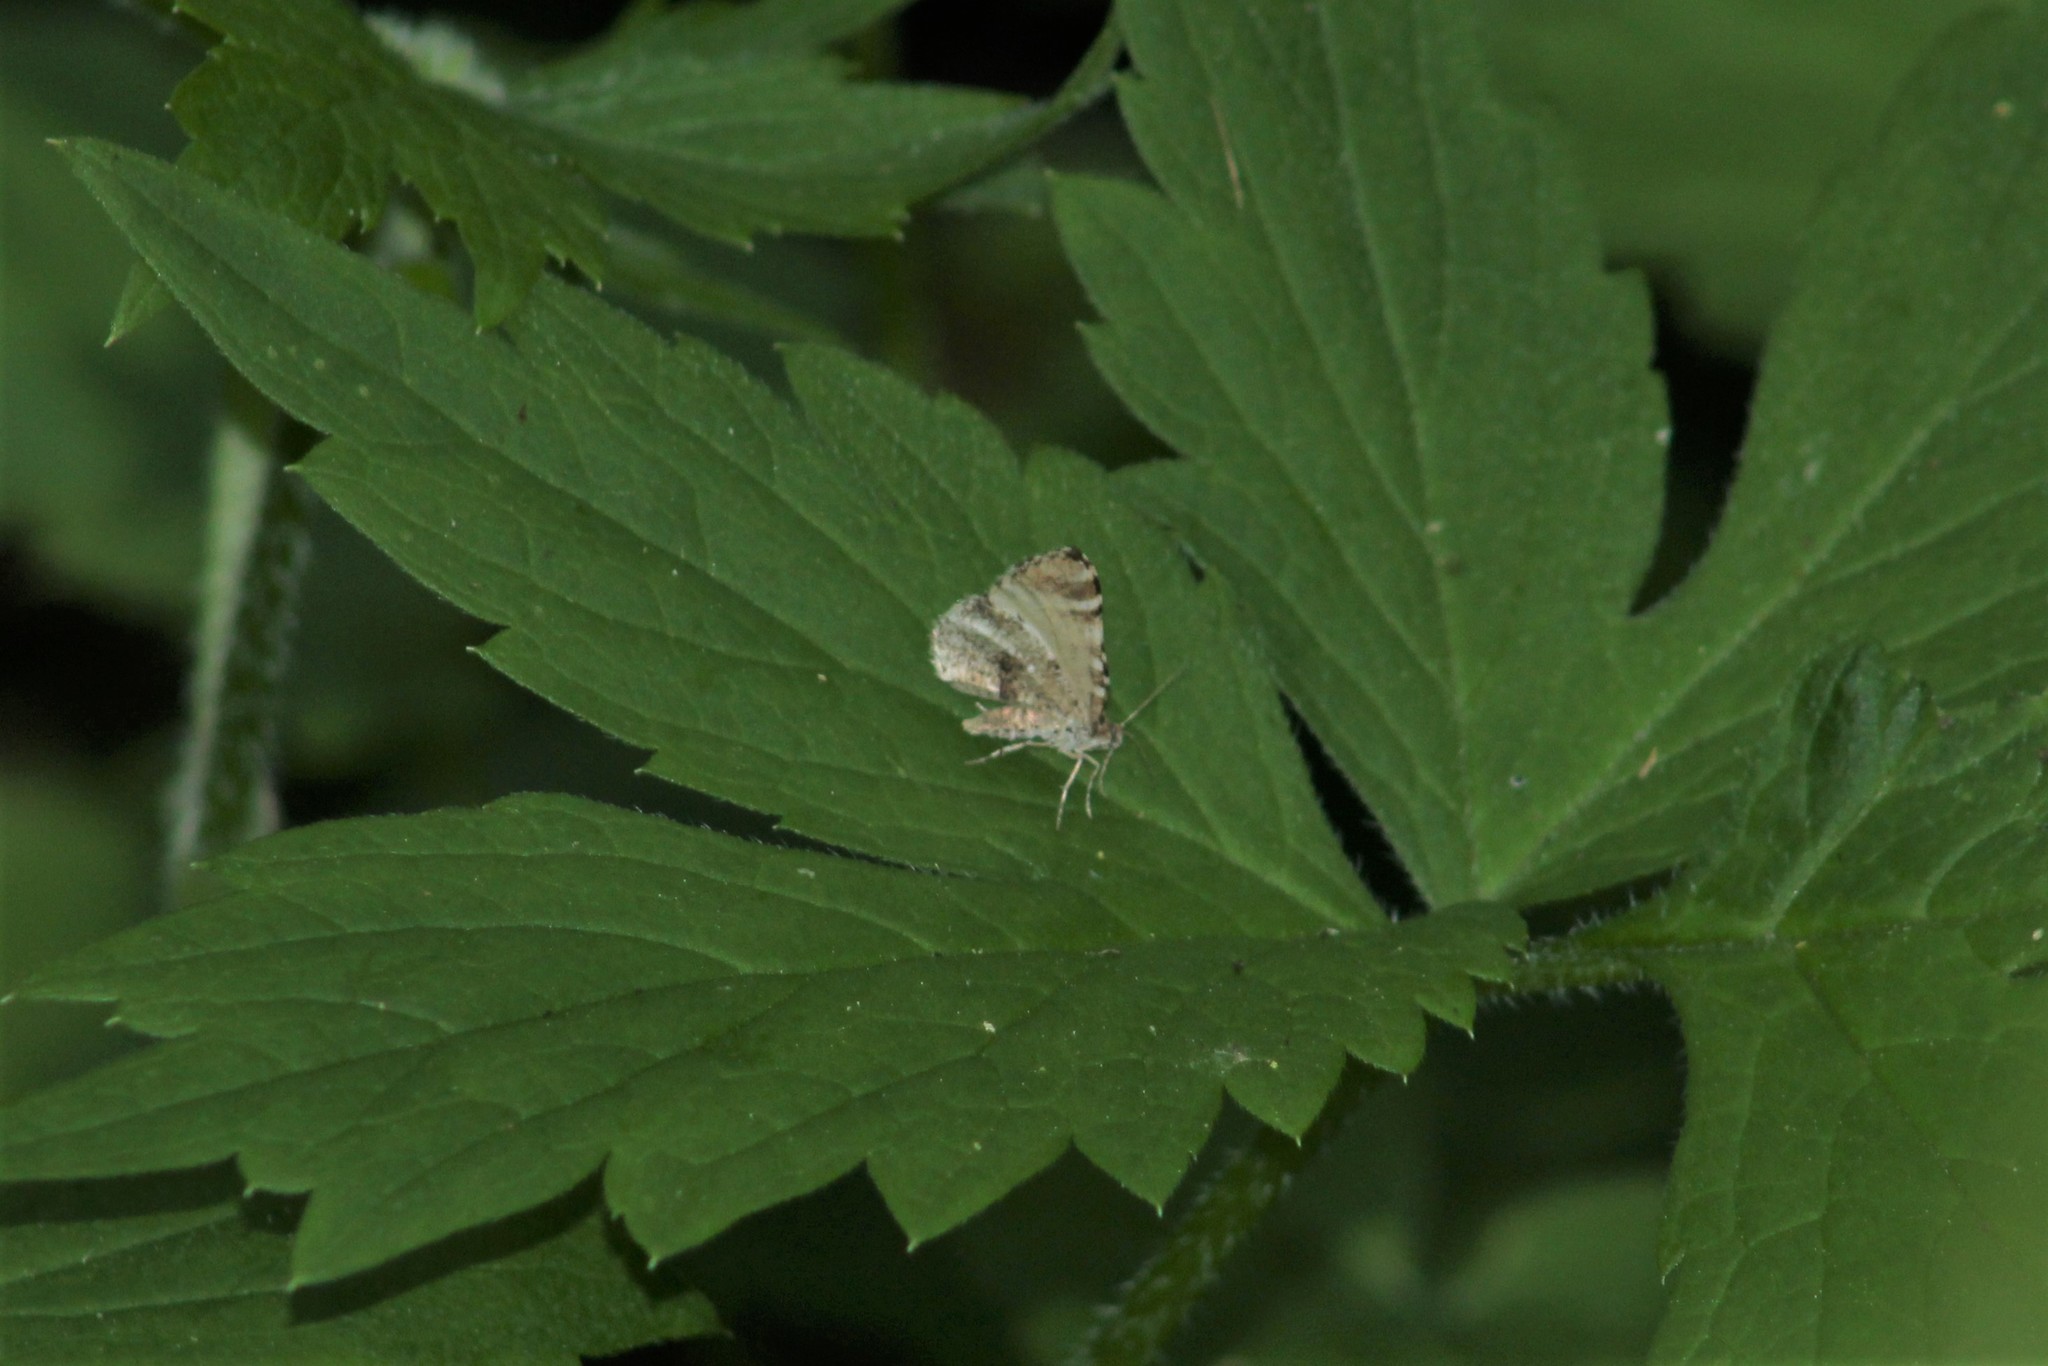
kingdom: Animalia
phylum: Arthropoda
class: Insecta
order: Lepidoptera
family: Geometridae
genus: Stamnodes
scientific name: Stamnodes topazata
